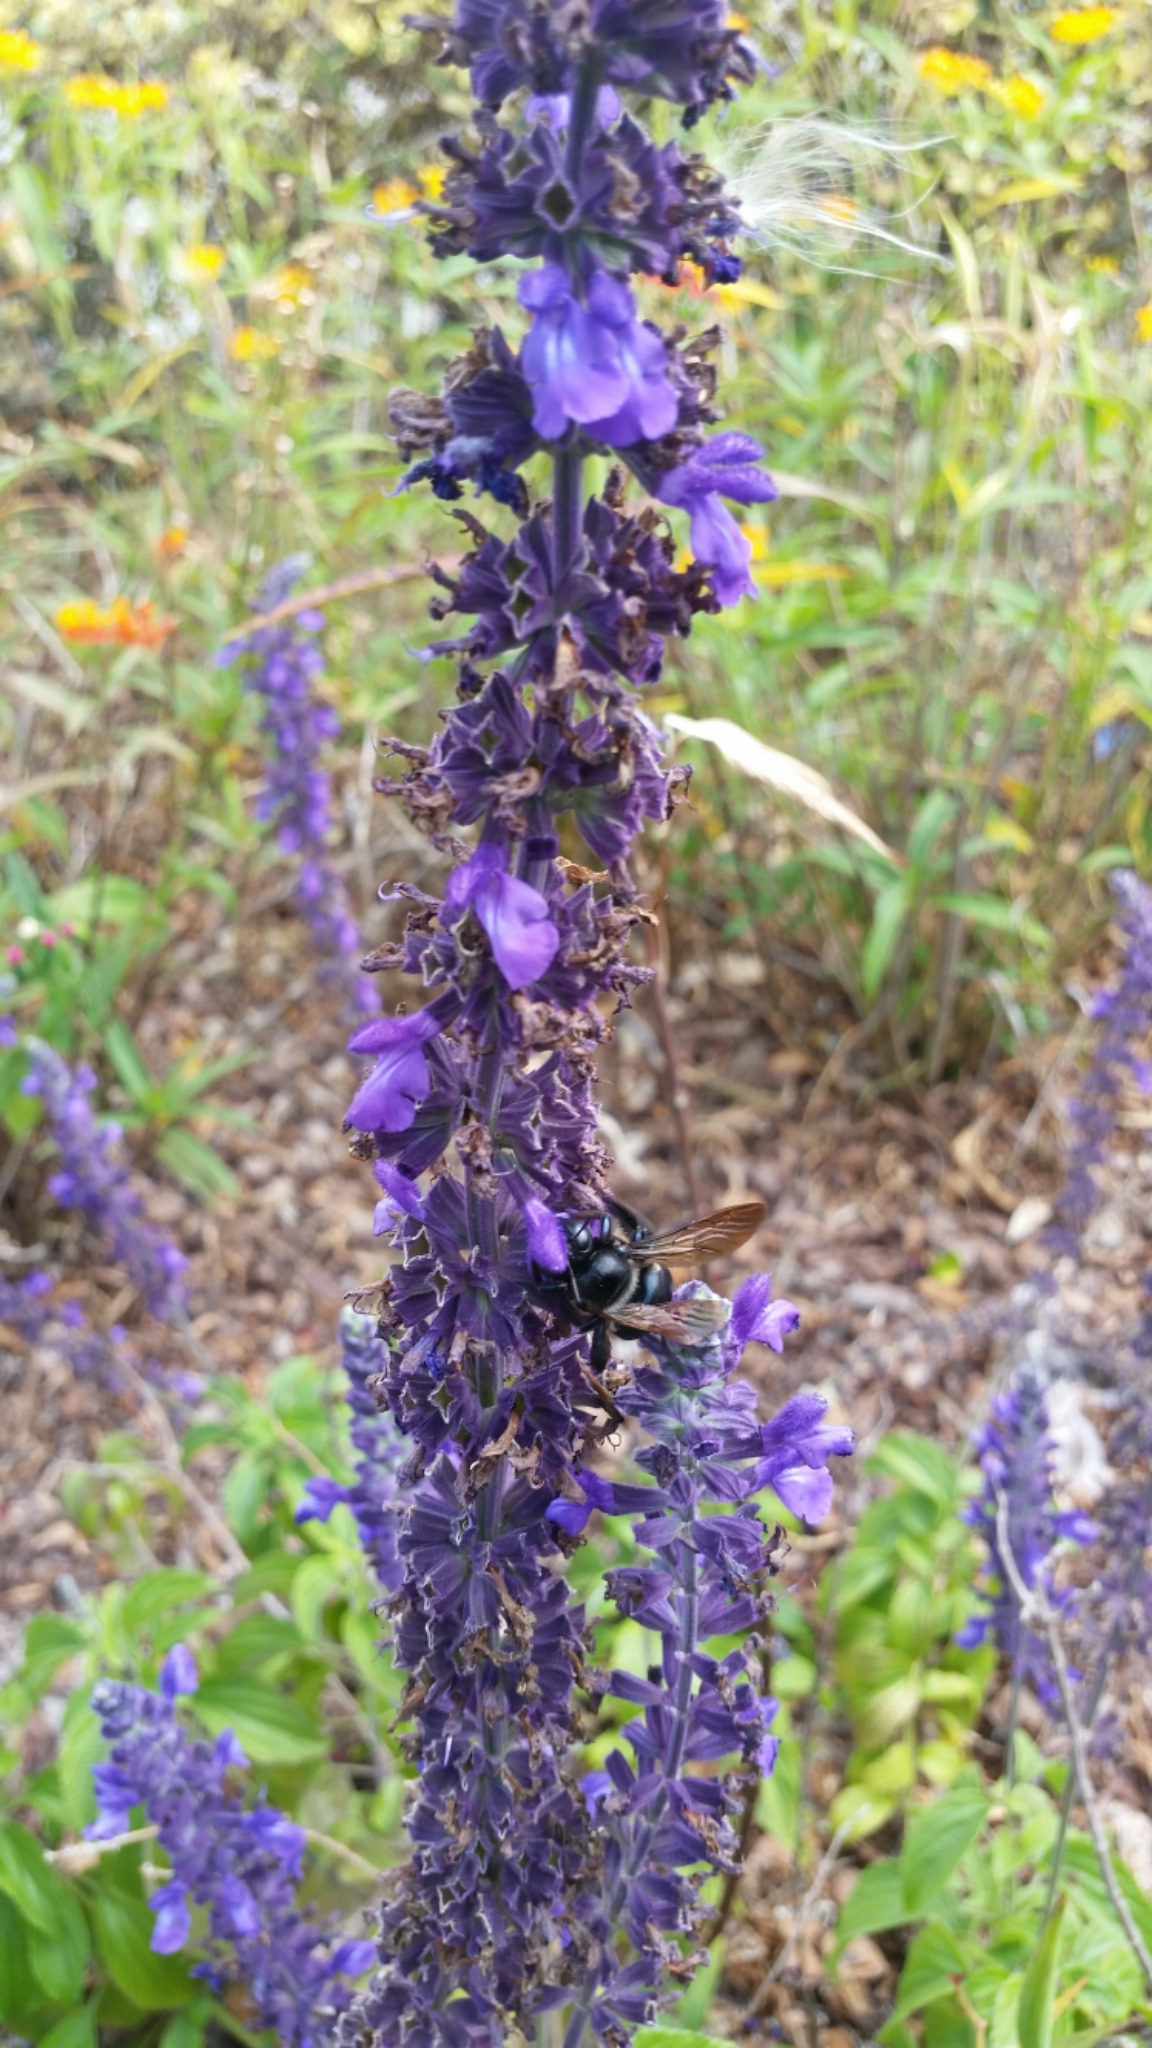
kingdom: Animalia
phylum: Arthropoda
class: Insecta
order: Hymenoptera
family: Apidae
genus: Xylocopa
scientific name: Xylocopa micans
